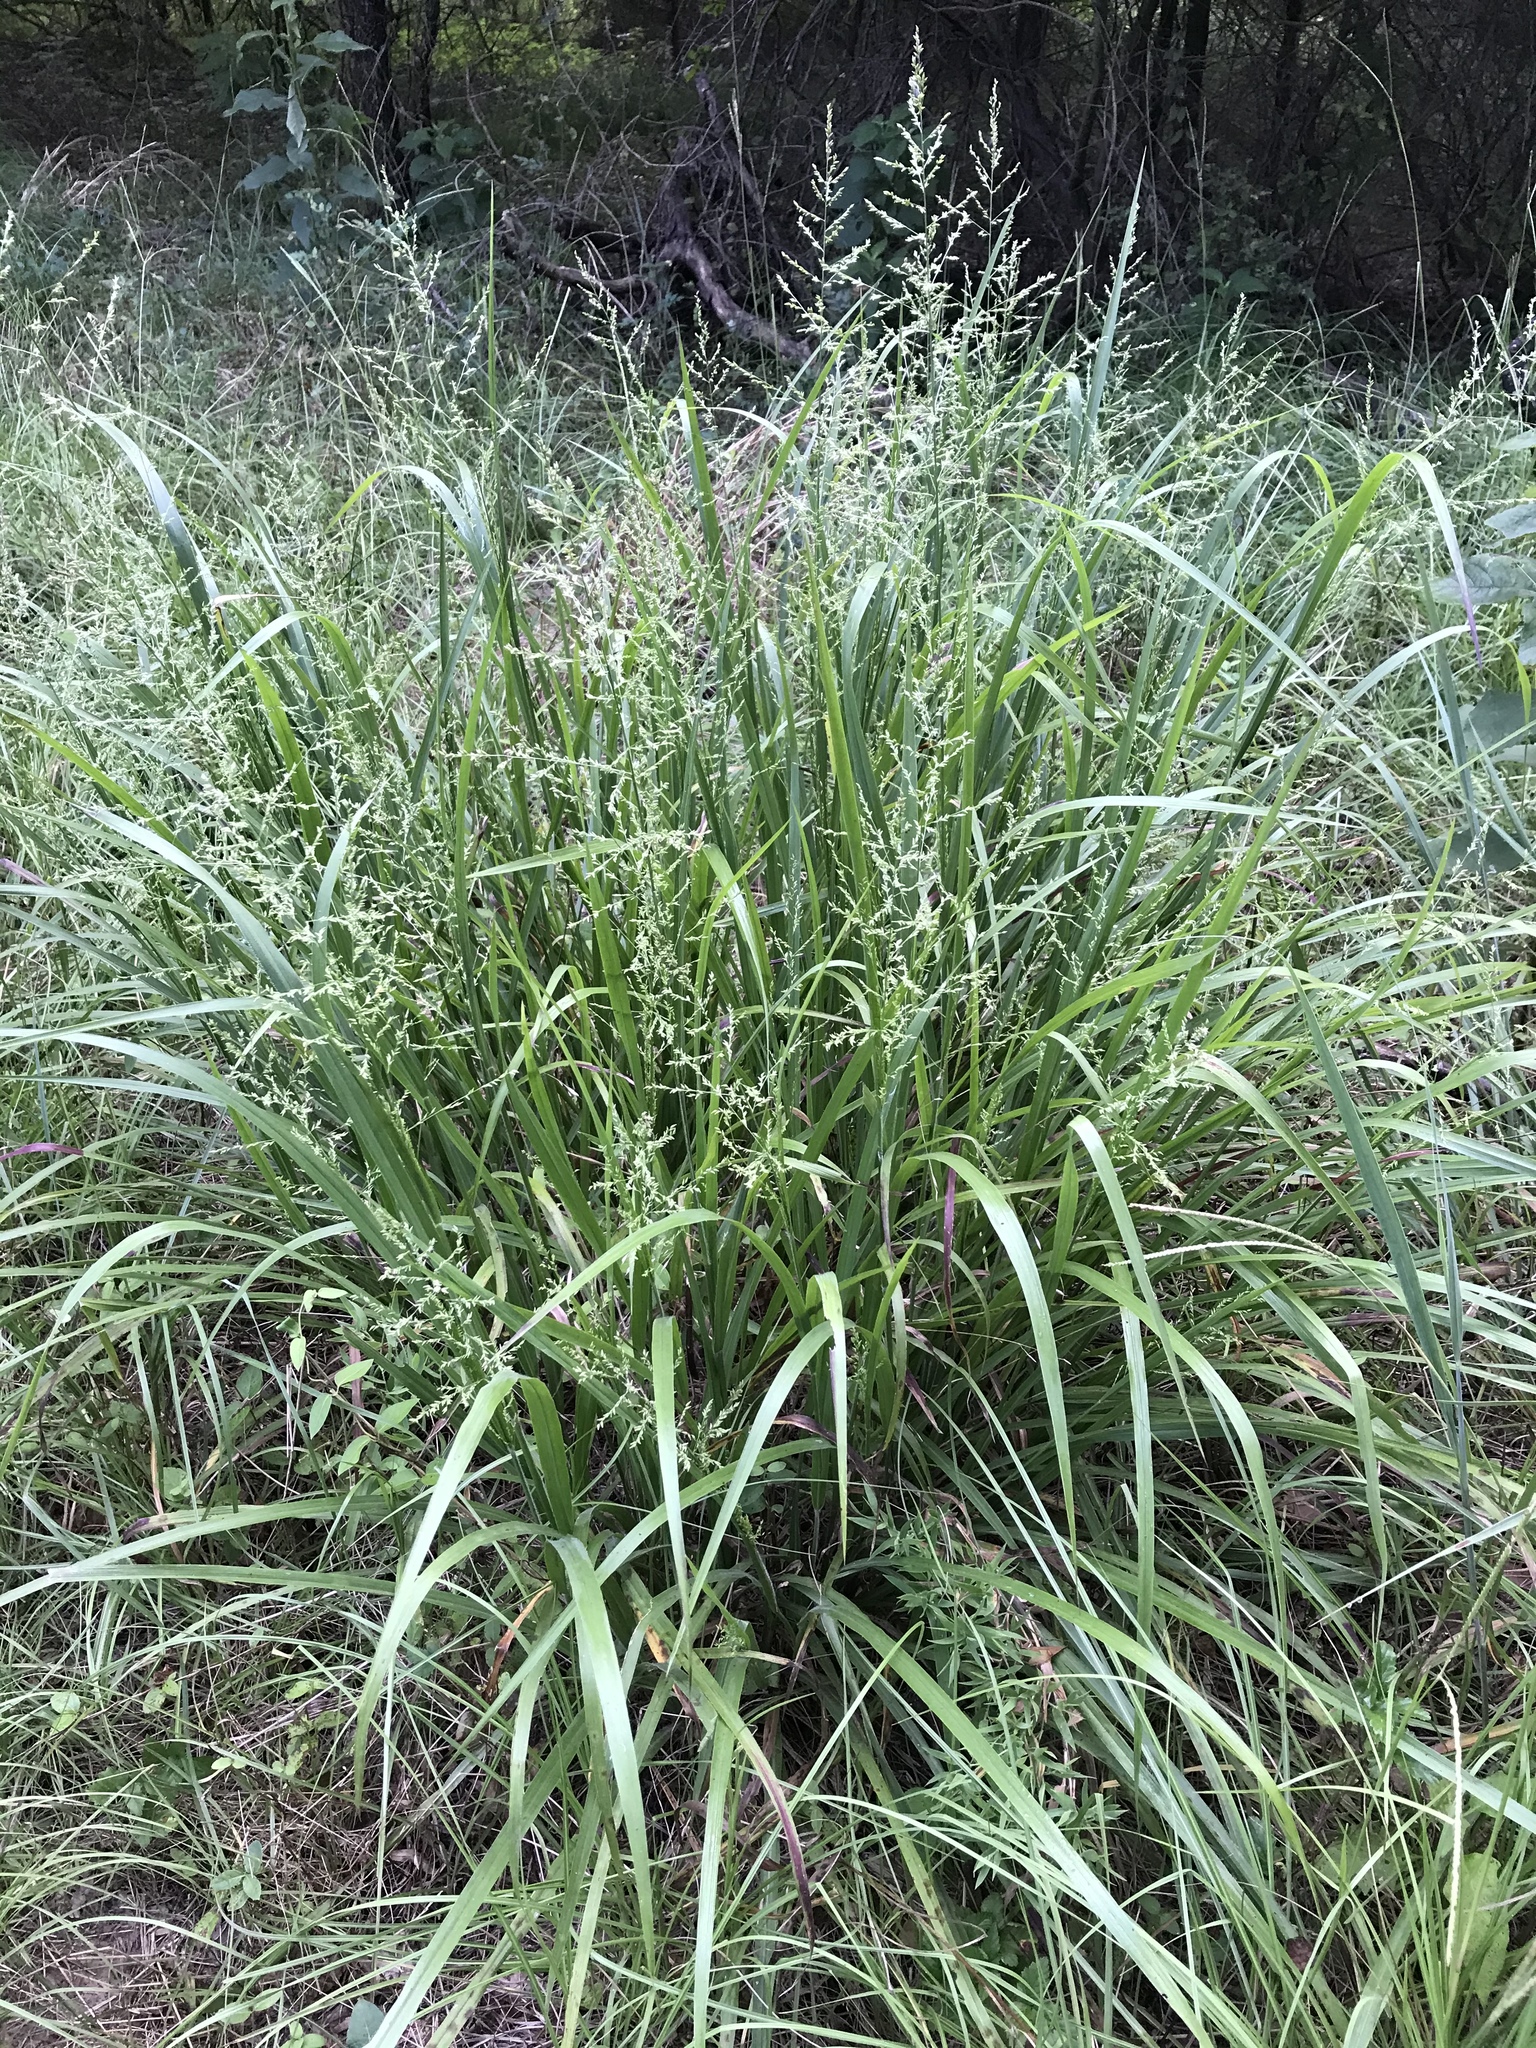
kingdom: Plantae
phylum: Tracheophyta
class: Liliopsida
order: Poales
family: Poaceae
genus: Coleataenia
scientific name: Coleataenia anceps
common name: Beaked panic grass
